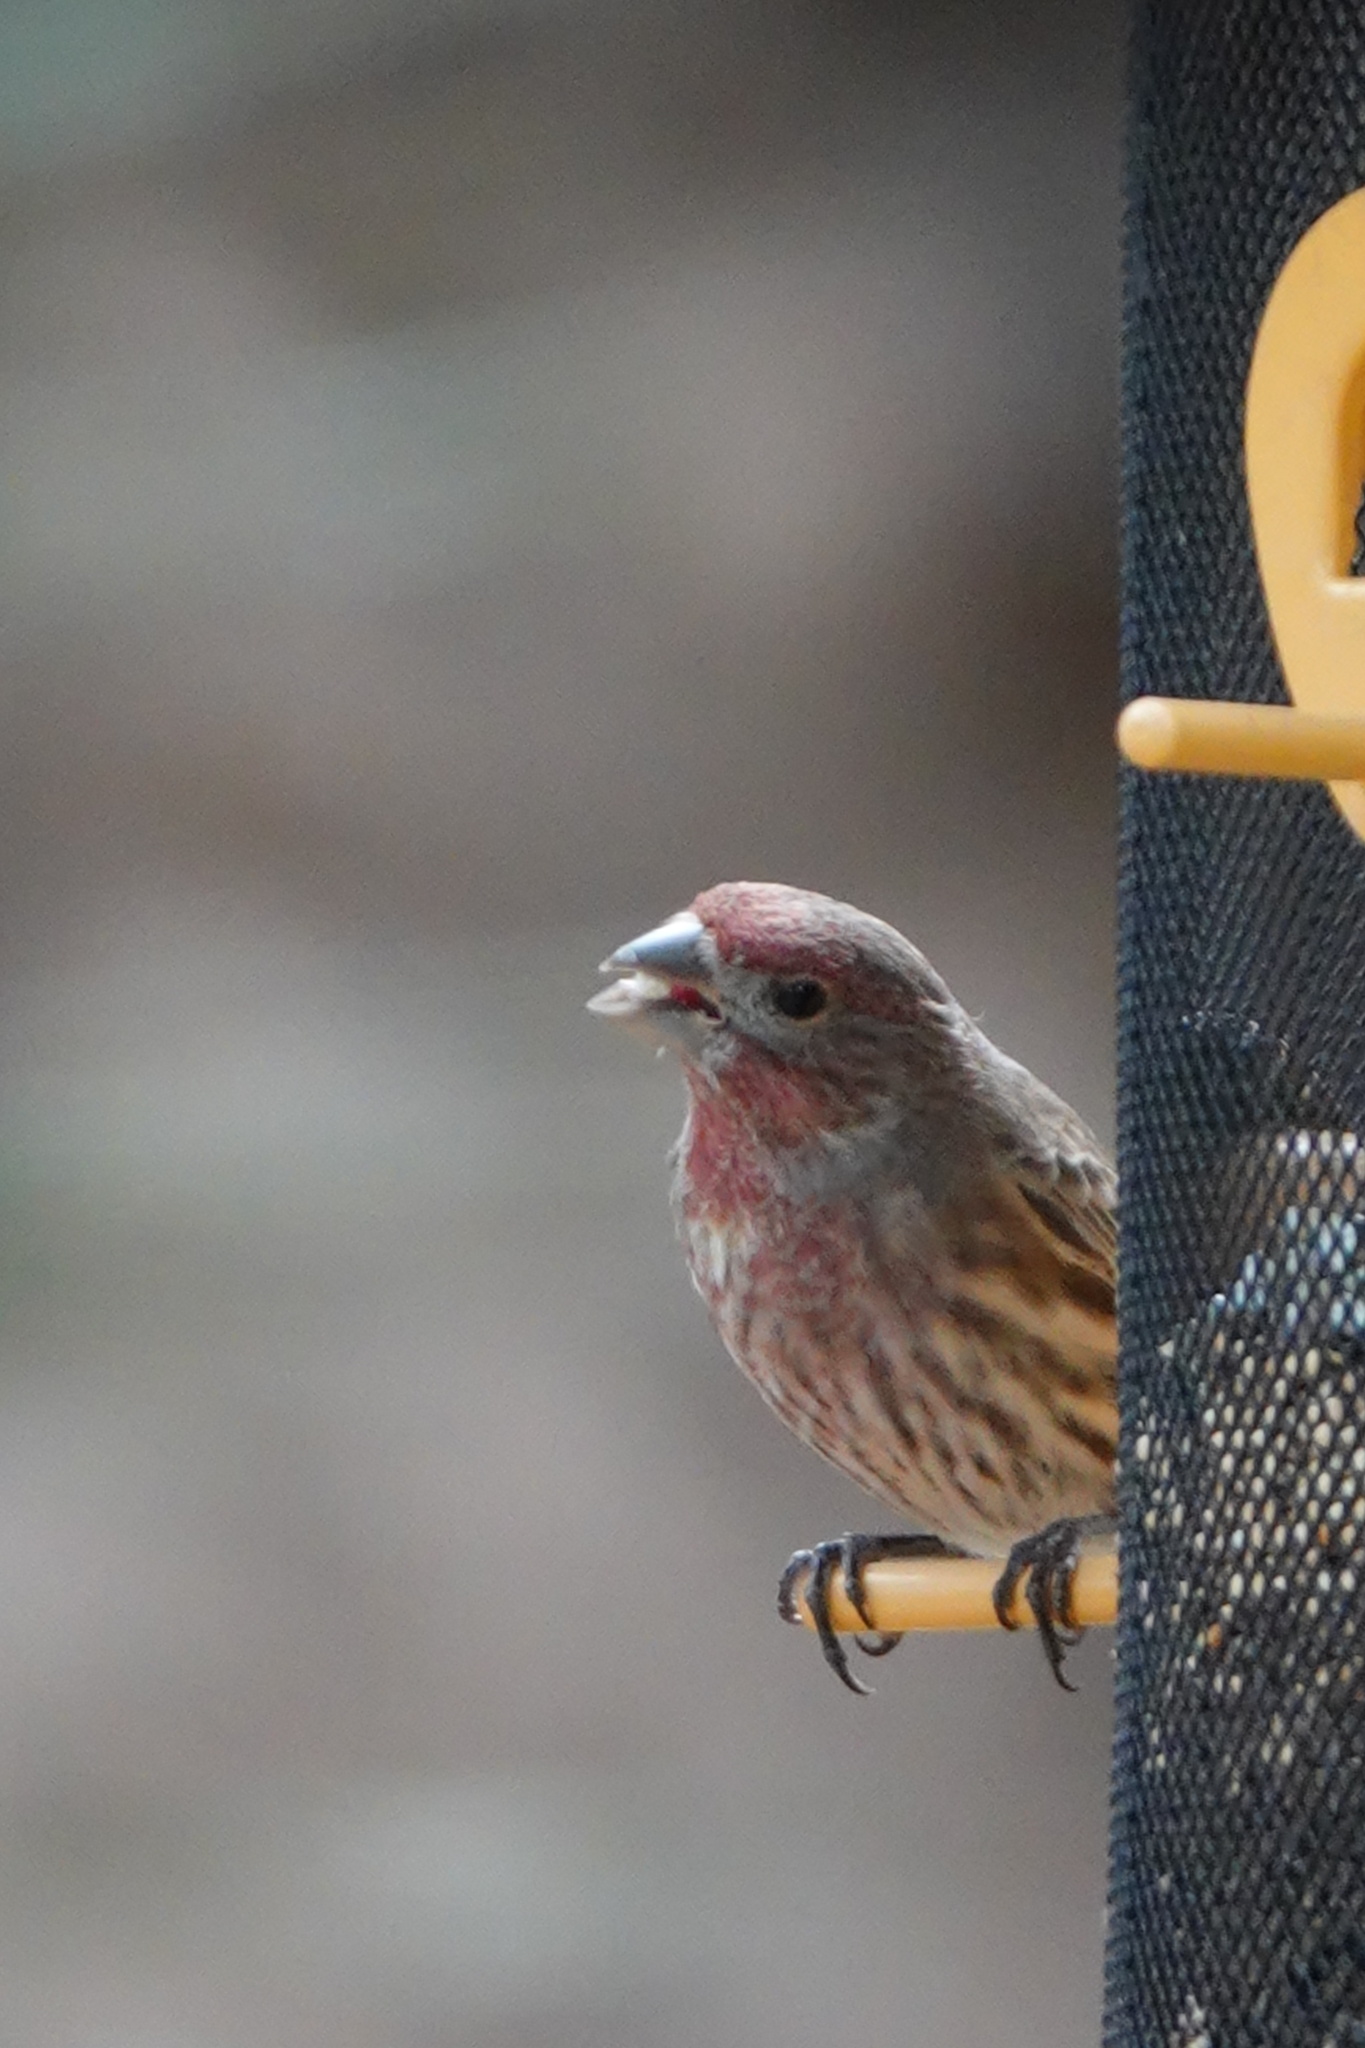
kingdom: Animalia
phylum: Chordata
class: Aves
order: Passeriformes
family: Fringillidae
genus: Haemorhous
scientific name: Haemorhous mexicanus
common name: House finch
